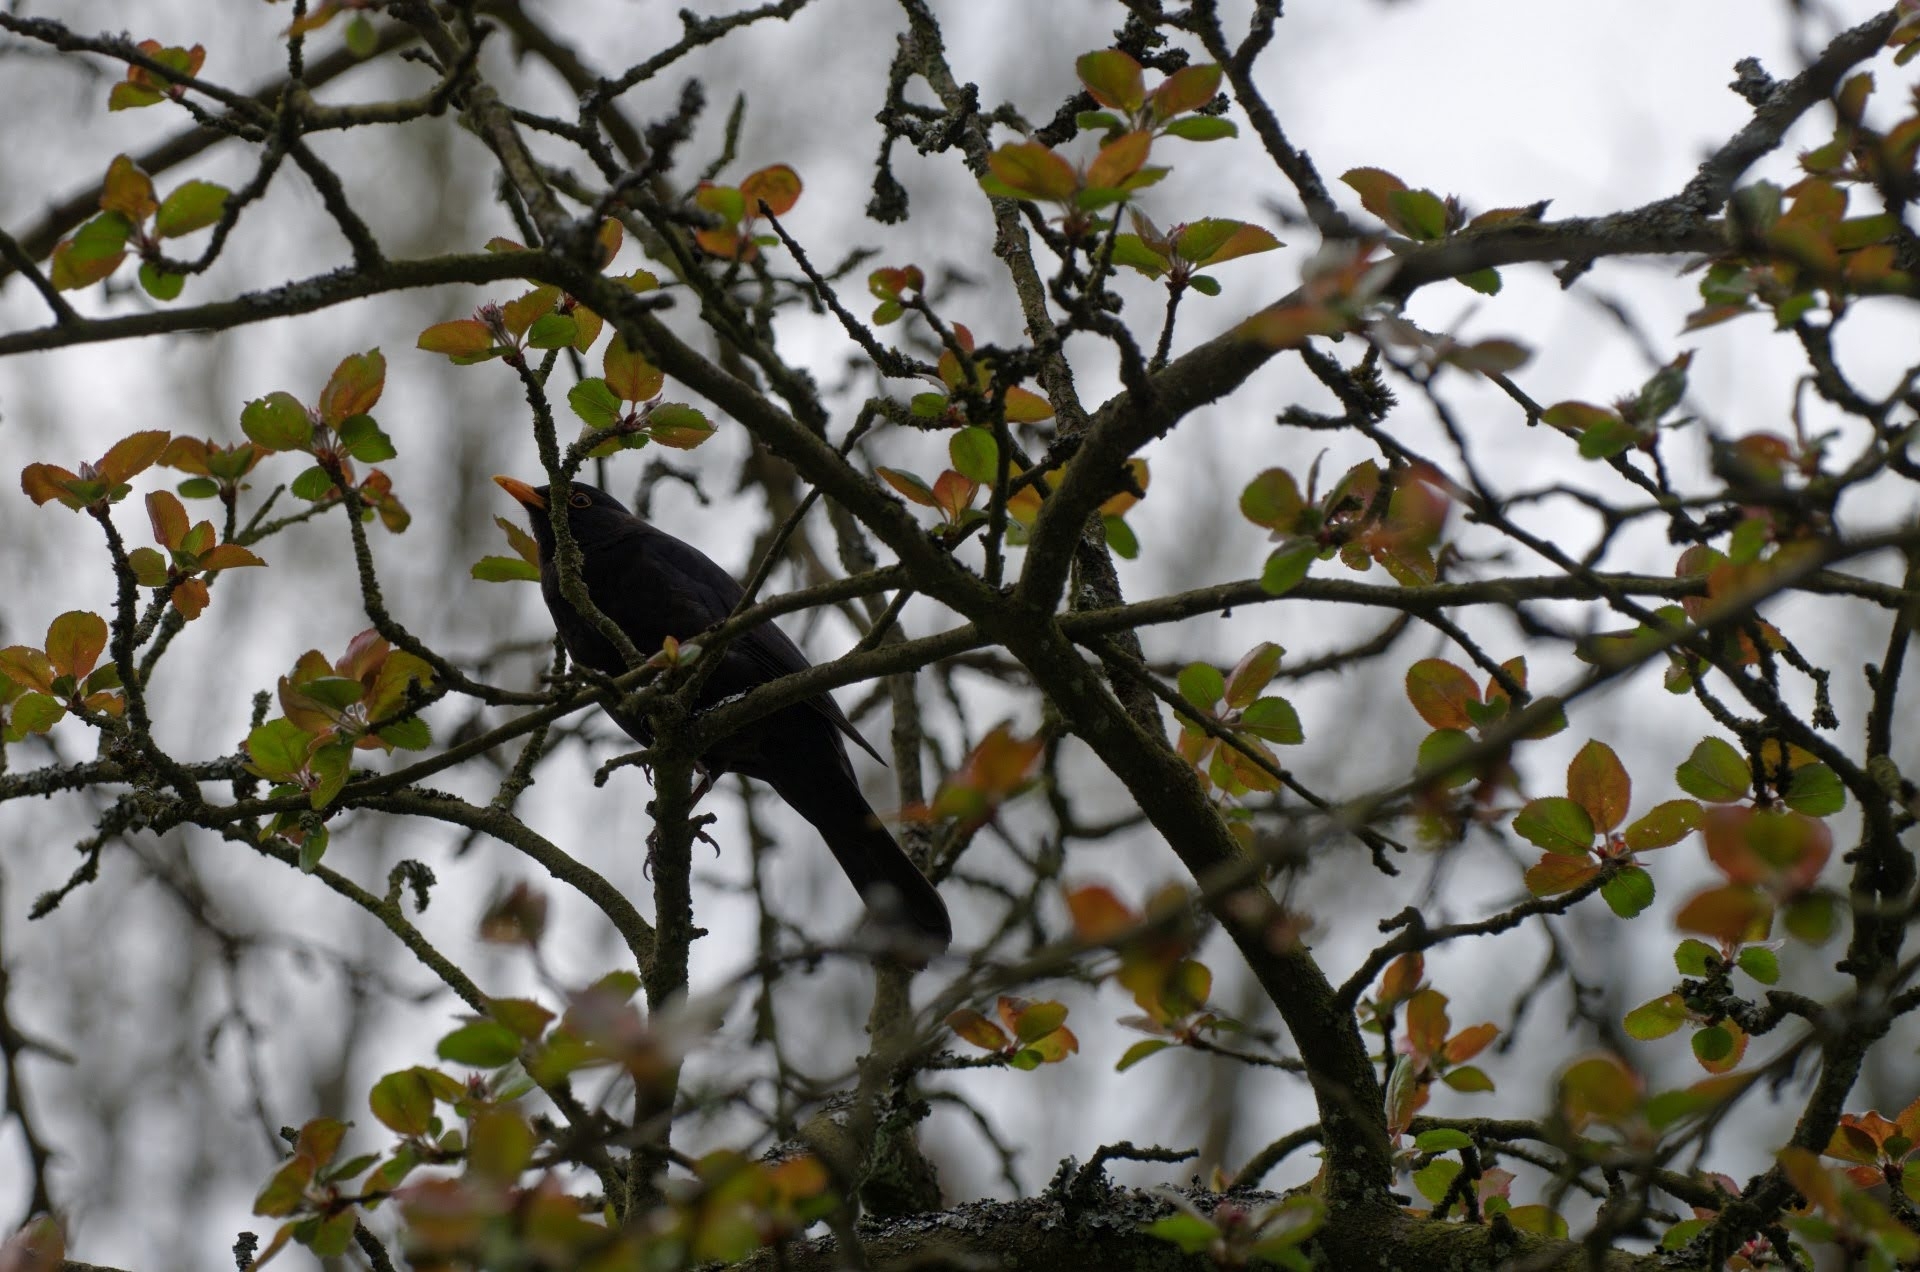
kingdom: Animalia
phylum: Chordata
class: Aves
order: Passeriformes
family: Turdidae
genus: Turdus
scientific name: Turdus merula
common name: Common blackbird
